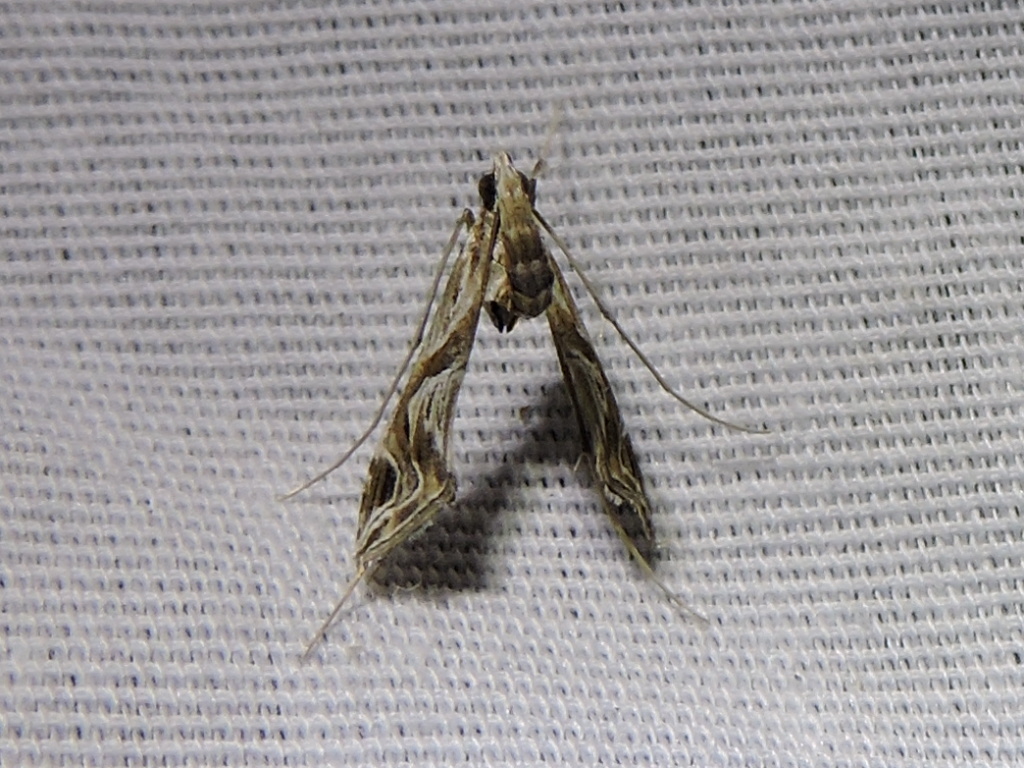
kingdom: Animalia
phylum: Arthropoda
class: Insecta
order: Lepidoptera
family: Crambidae
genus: Lineodes
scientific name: Lineodes integra
